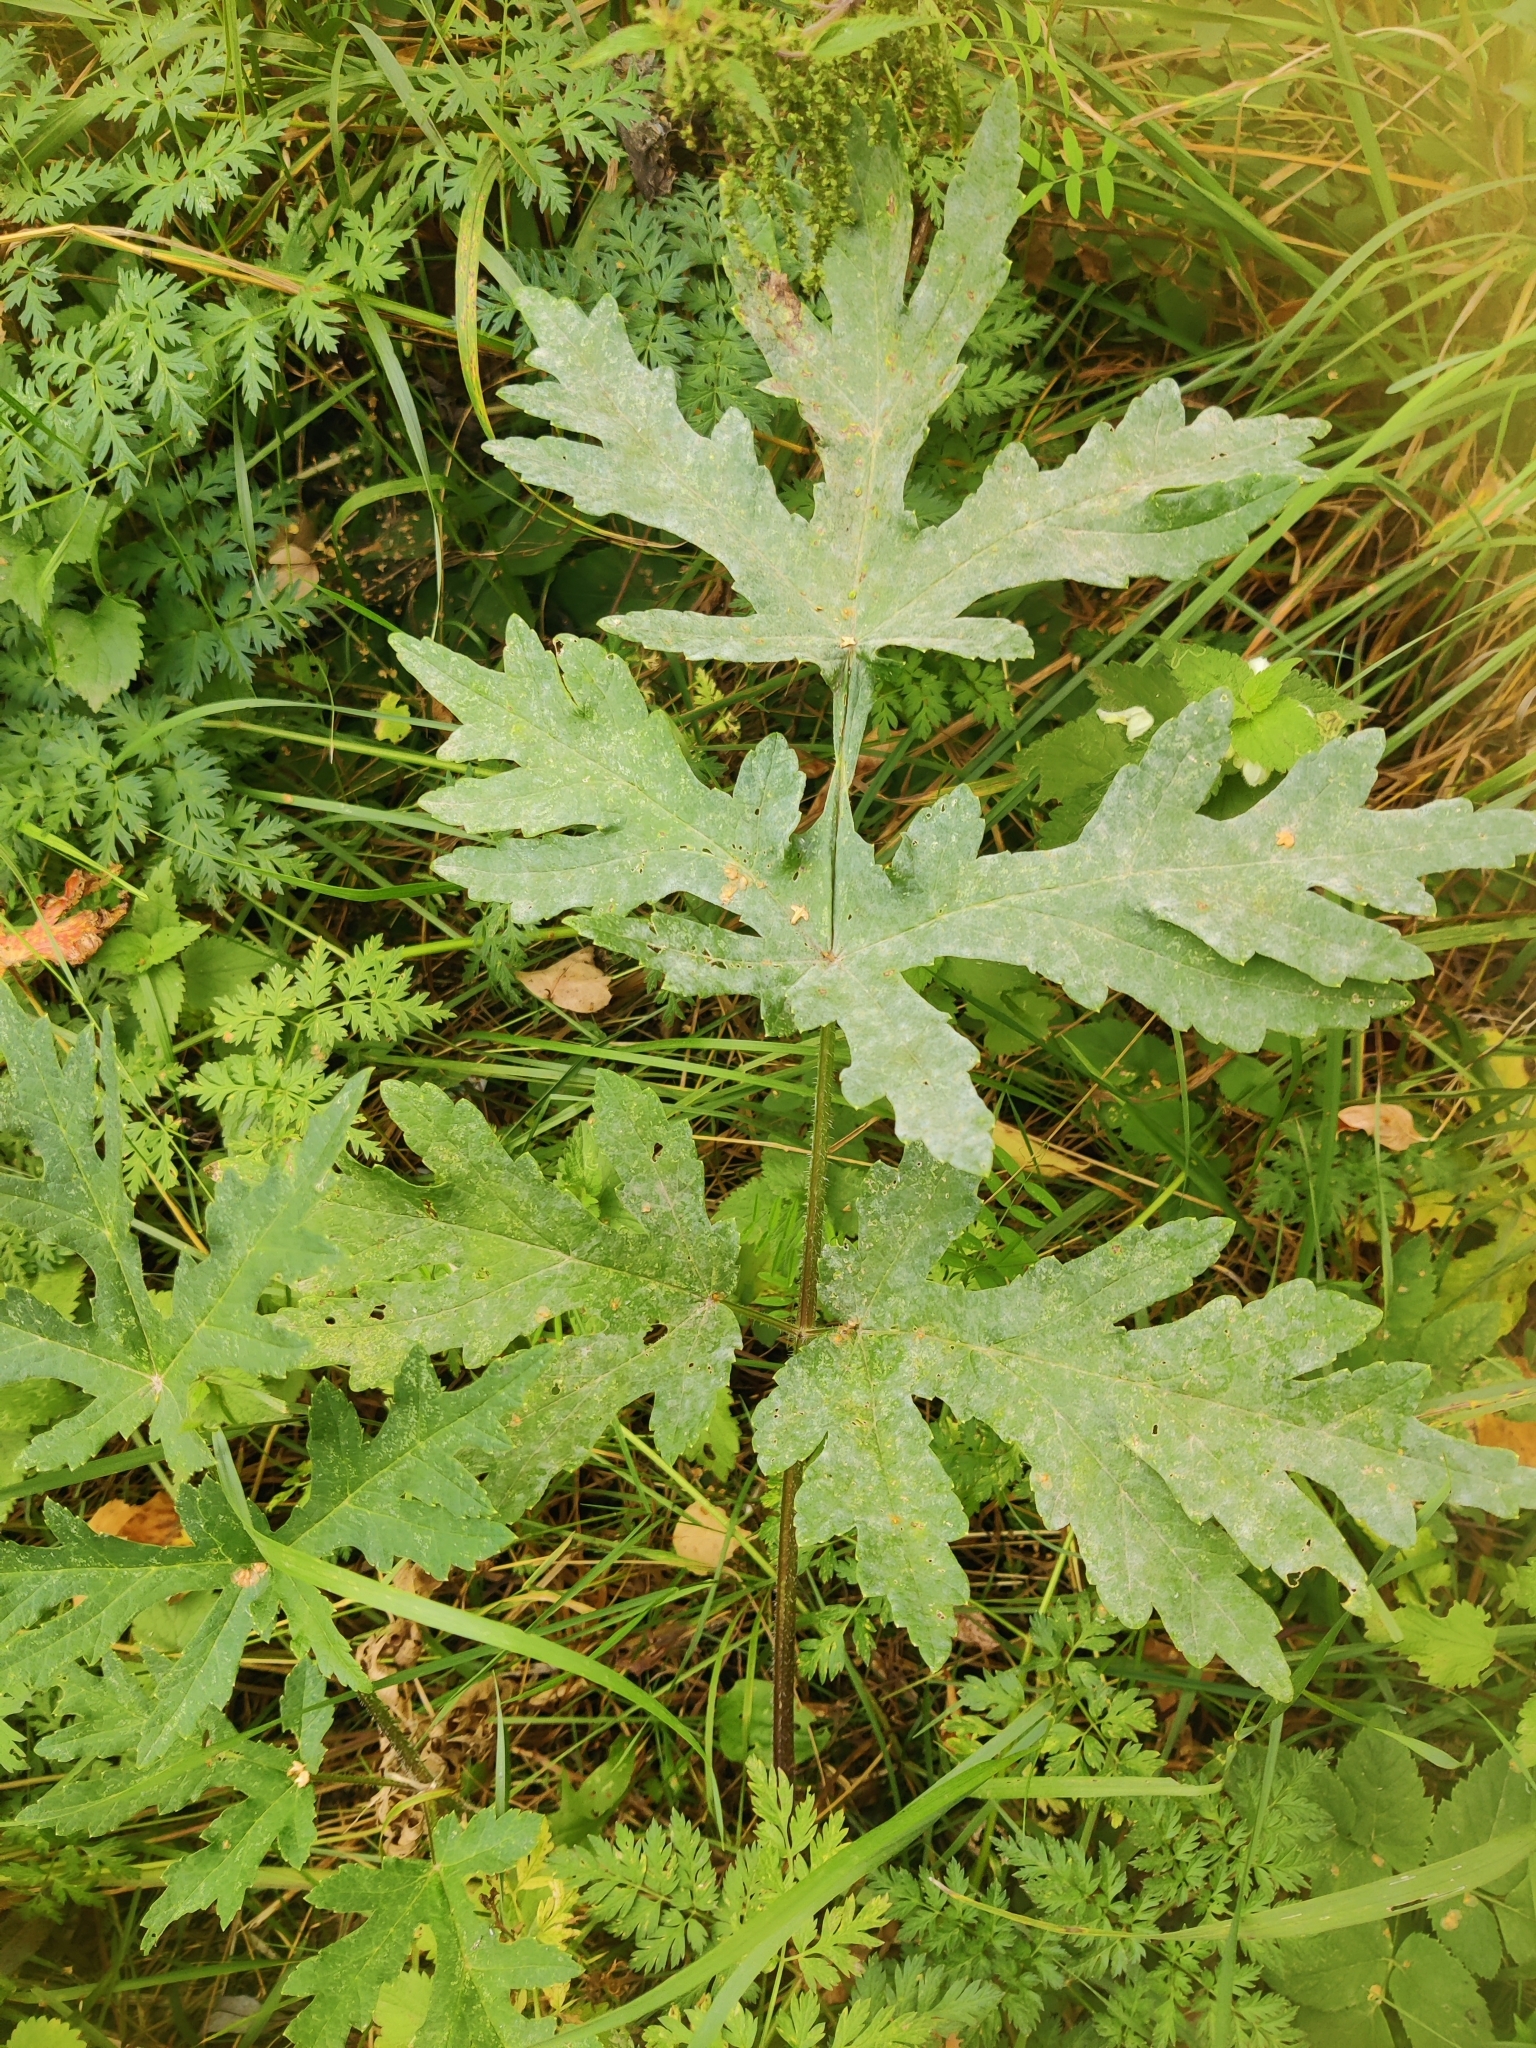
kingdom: Plantae
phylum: Tracheophyta
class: Magnoliopsida
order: Apiales
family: Apiaceae
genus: Heracleum
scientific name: Heracleum sphondylium
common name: Hogweed
